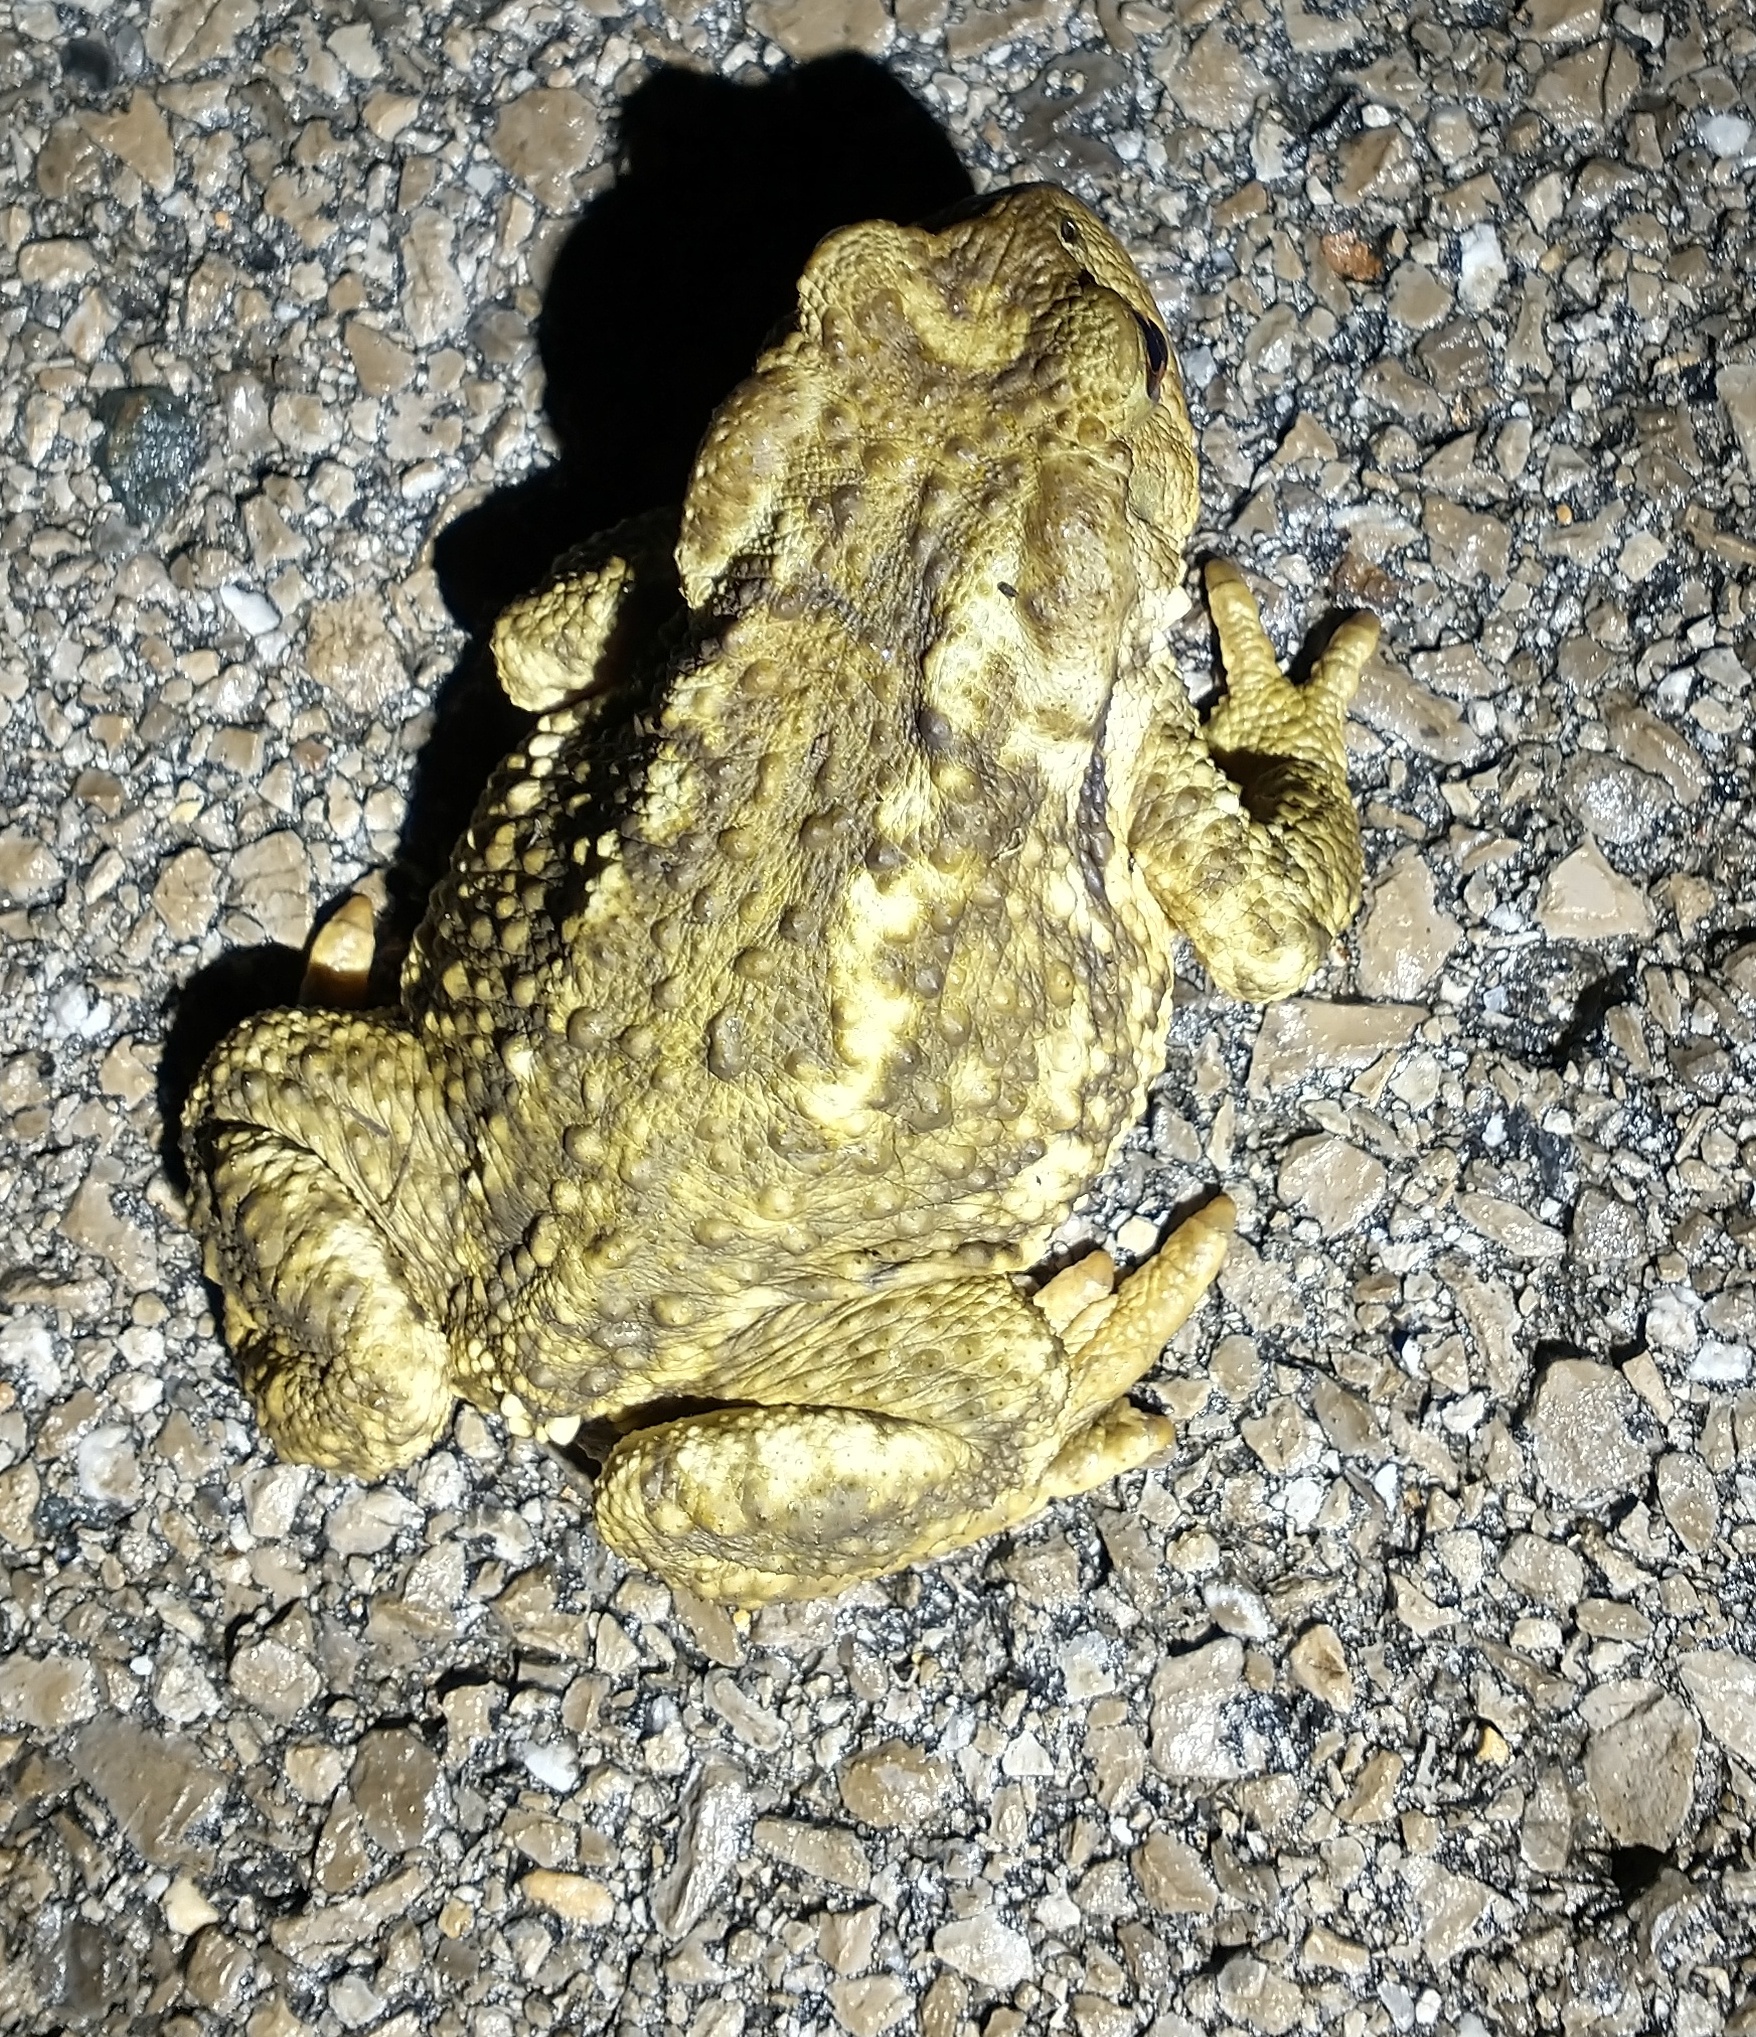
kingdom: Animalia
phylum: Chordata
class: Amphibia
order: Anura
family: Bufonidae
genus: Bufo
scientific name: Bufo spinosus
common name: Western common toad
